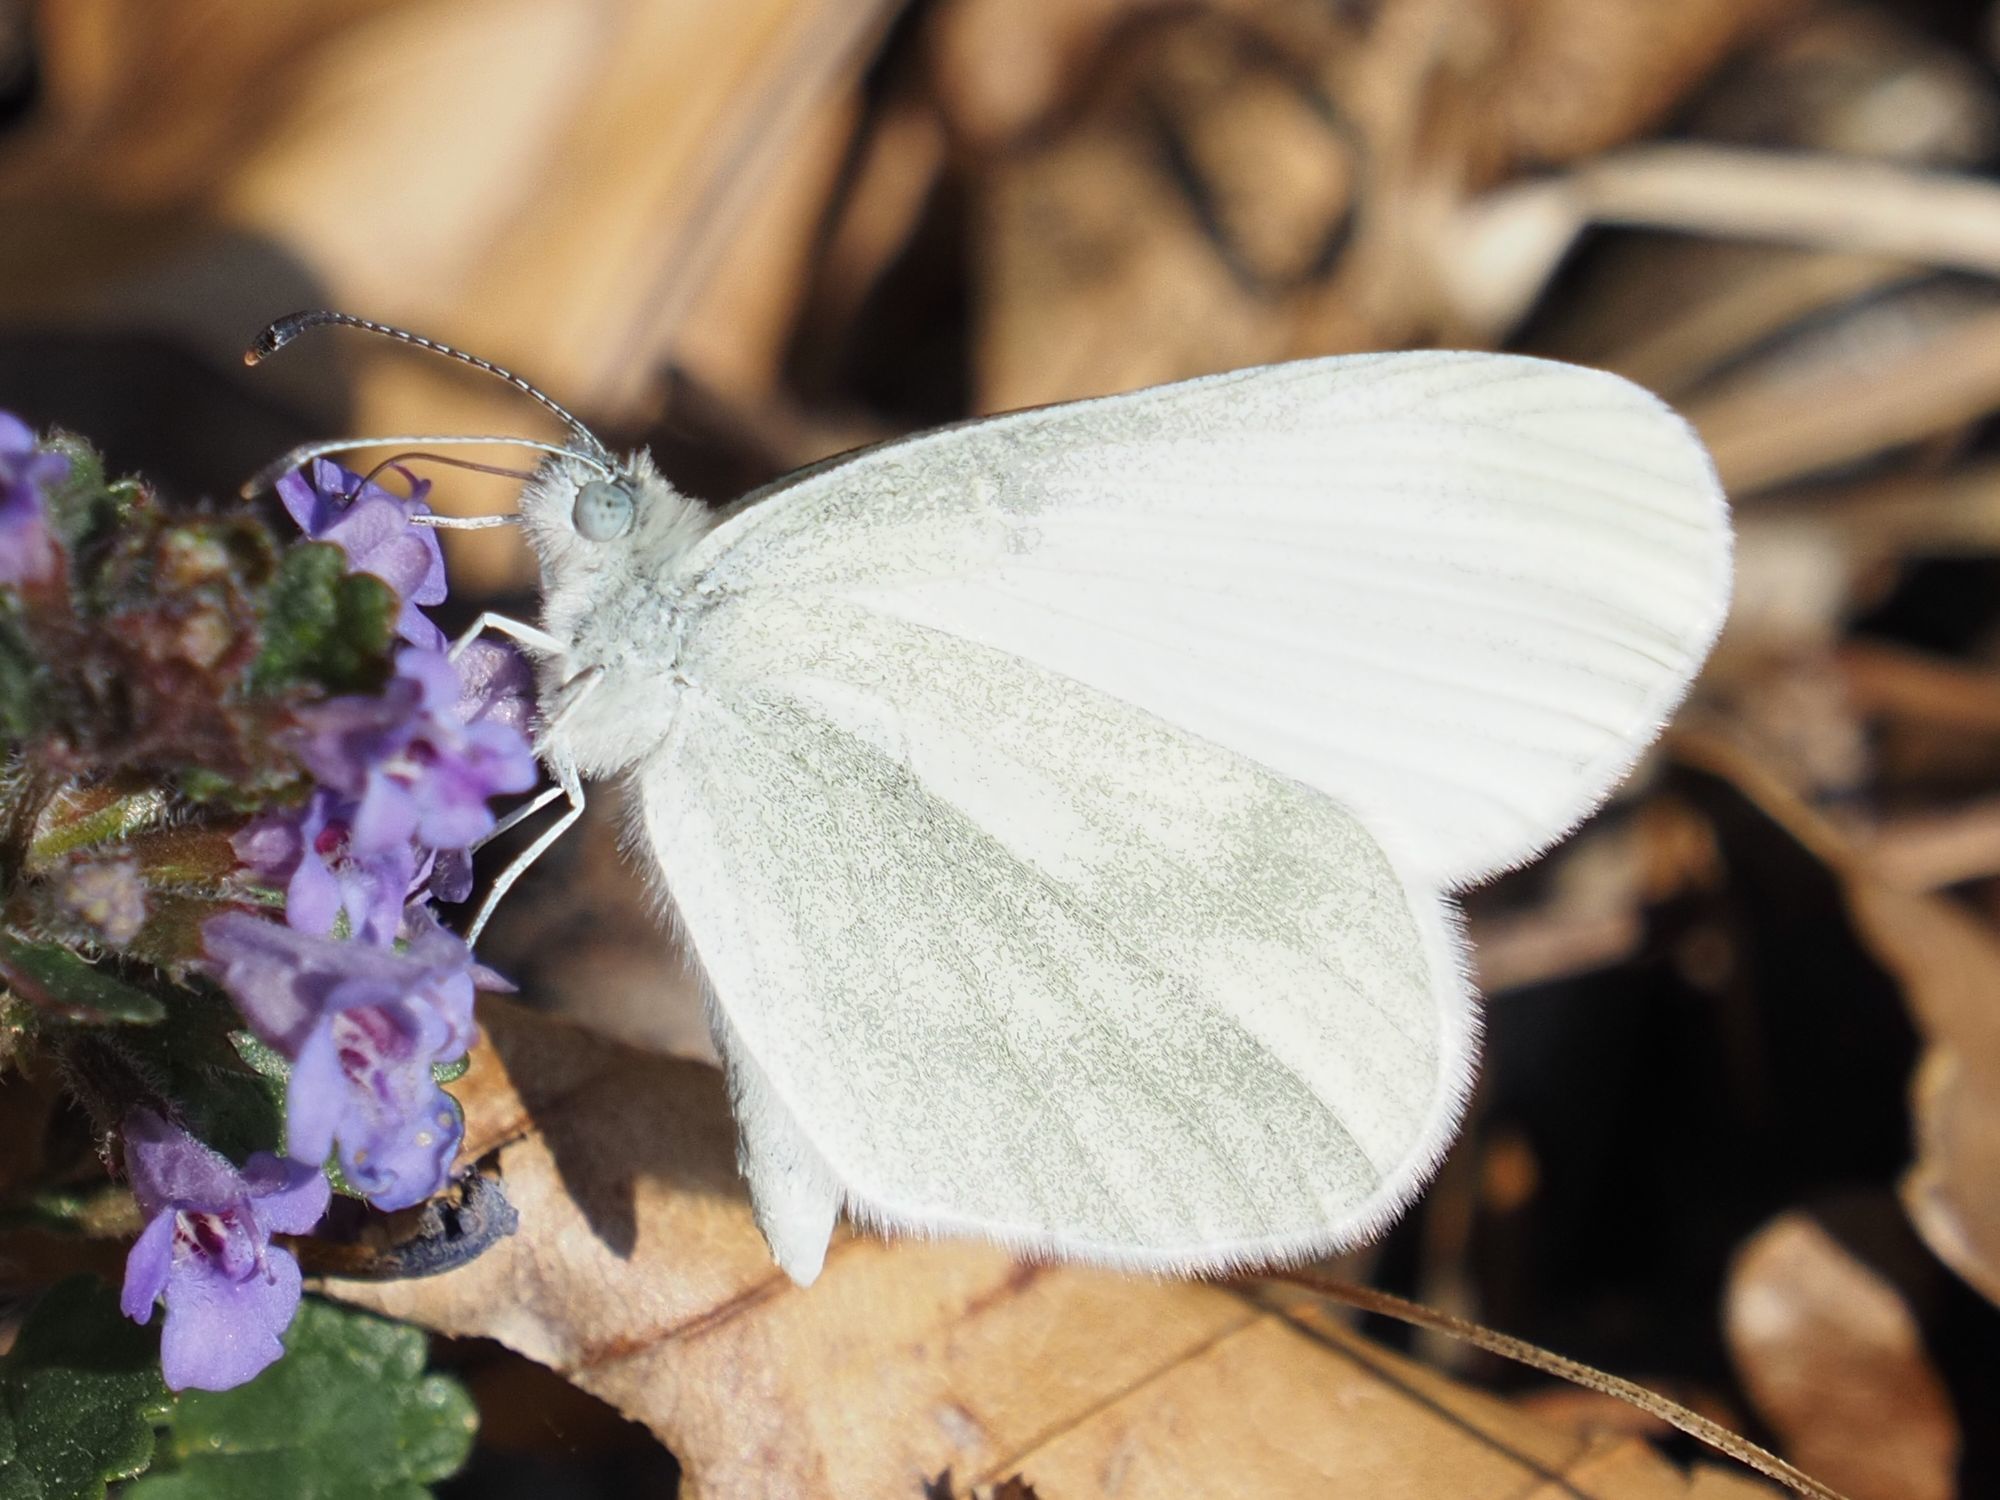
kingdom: Animalia
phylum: Arthropoda
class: Insecta
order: Lepidoptera
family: Pieridae
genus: Leptidea
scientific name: Leptidea
